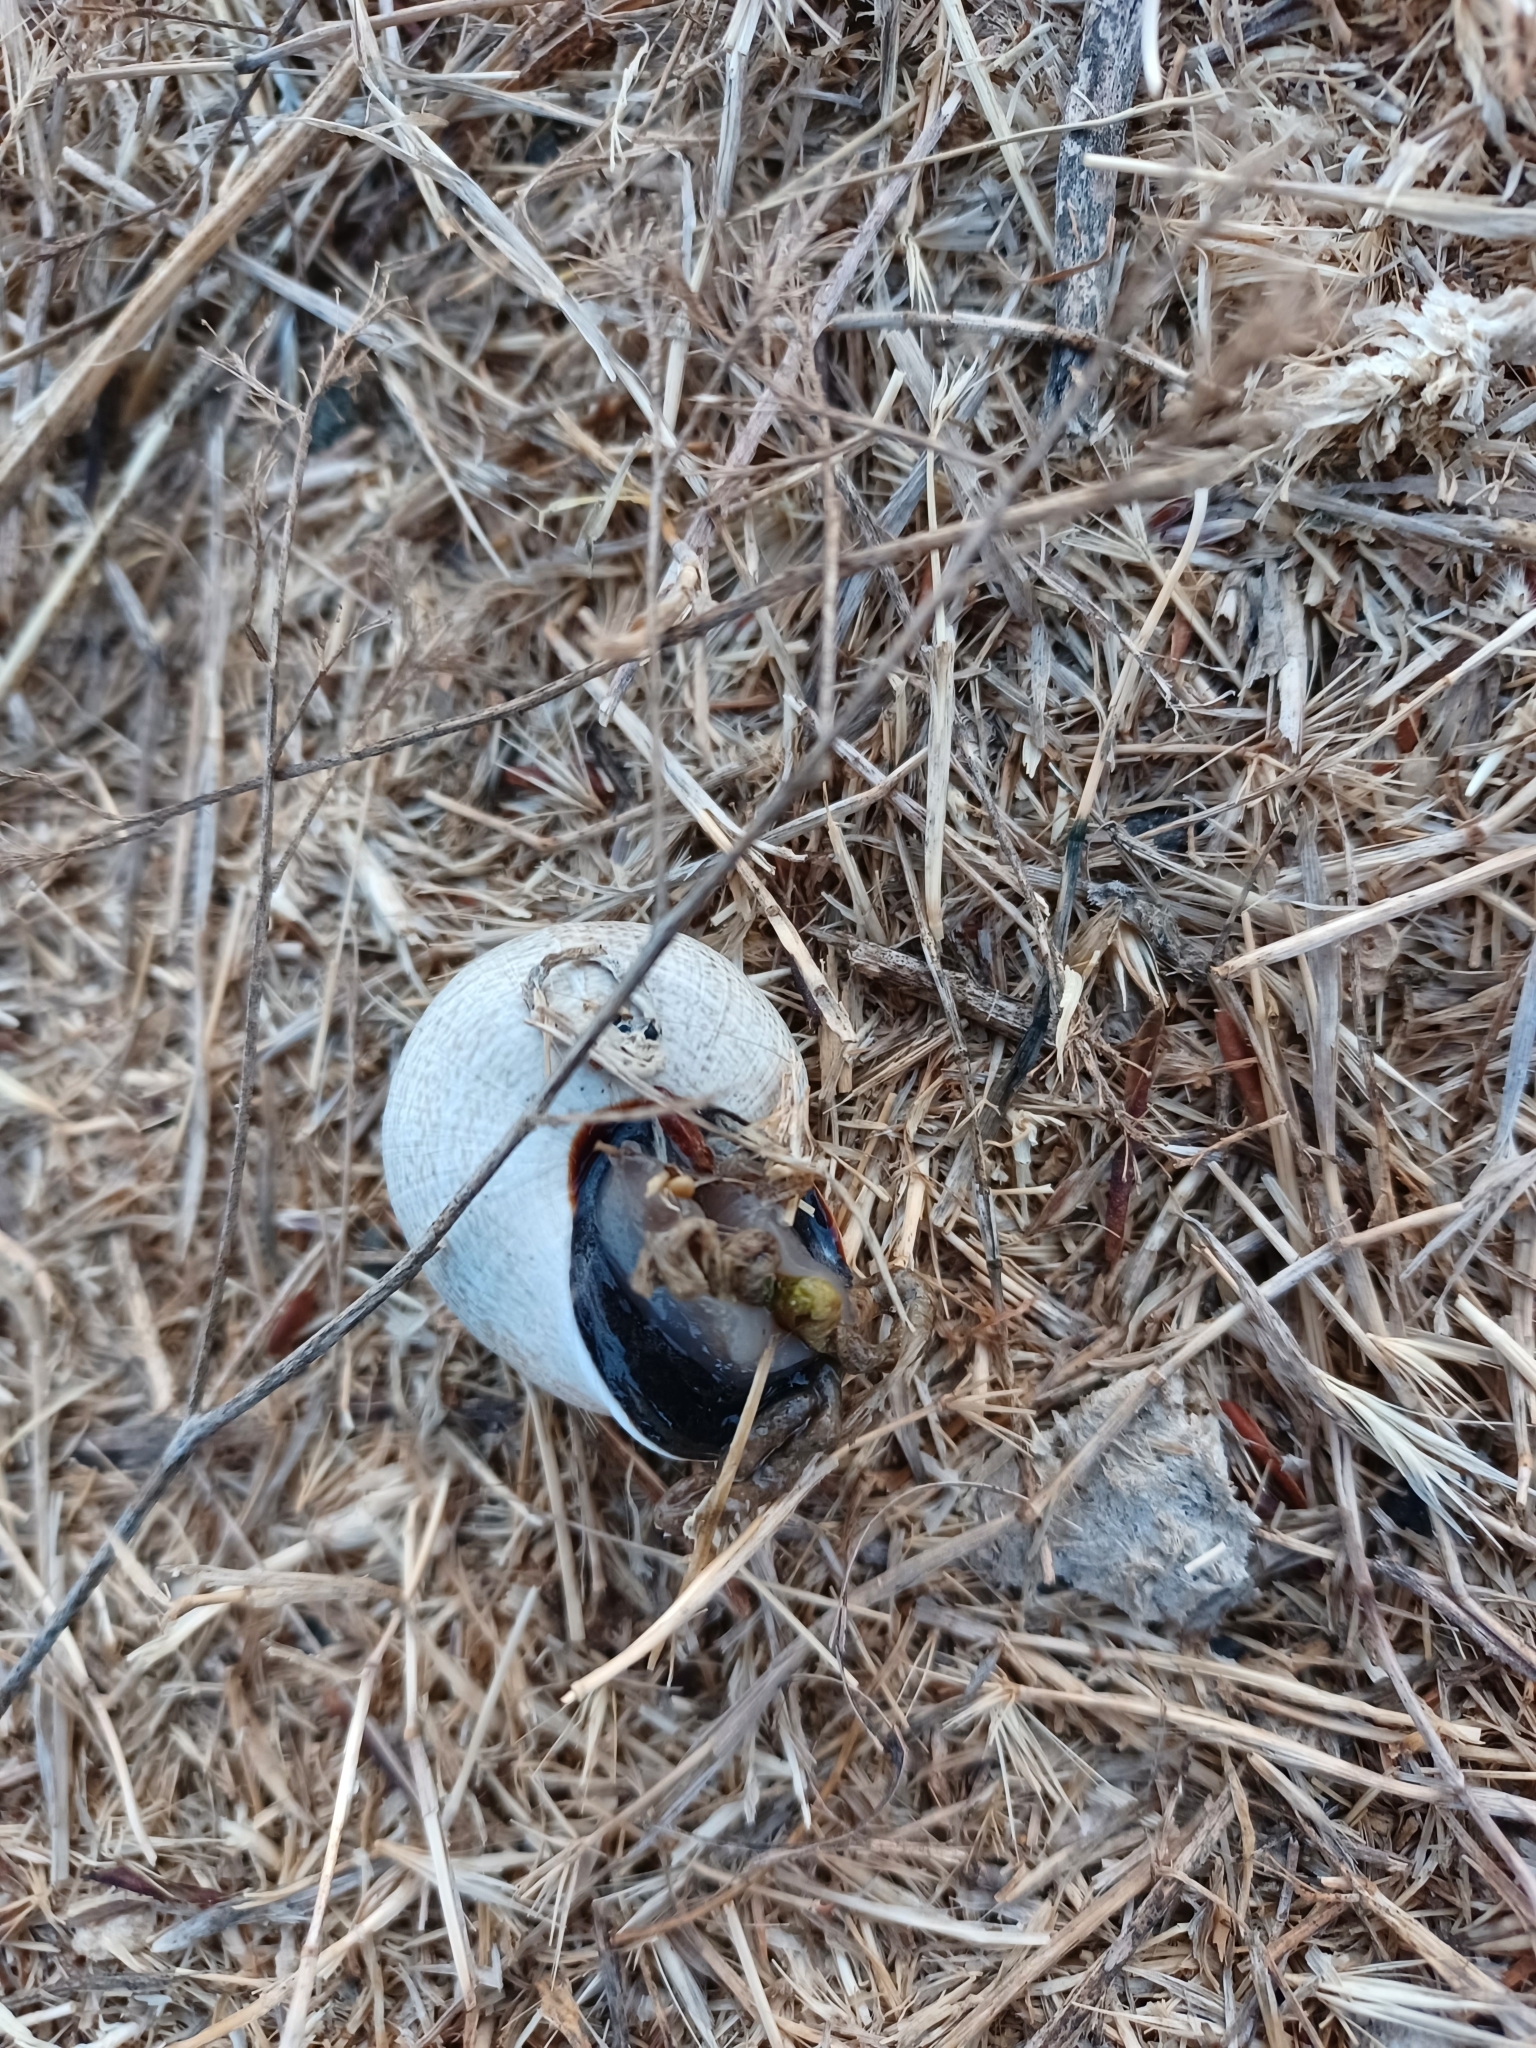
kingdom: Animalia
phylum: Mollusca
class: Gastropoda
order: Stylommatophora
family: Helicidae
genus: Otala
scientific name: Otala lactea
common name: Milk snail
